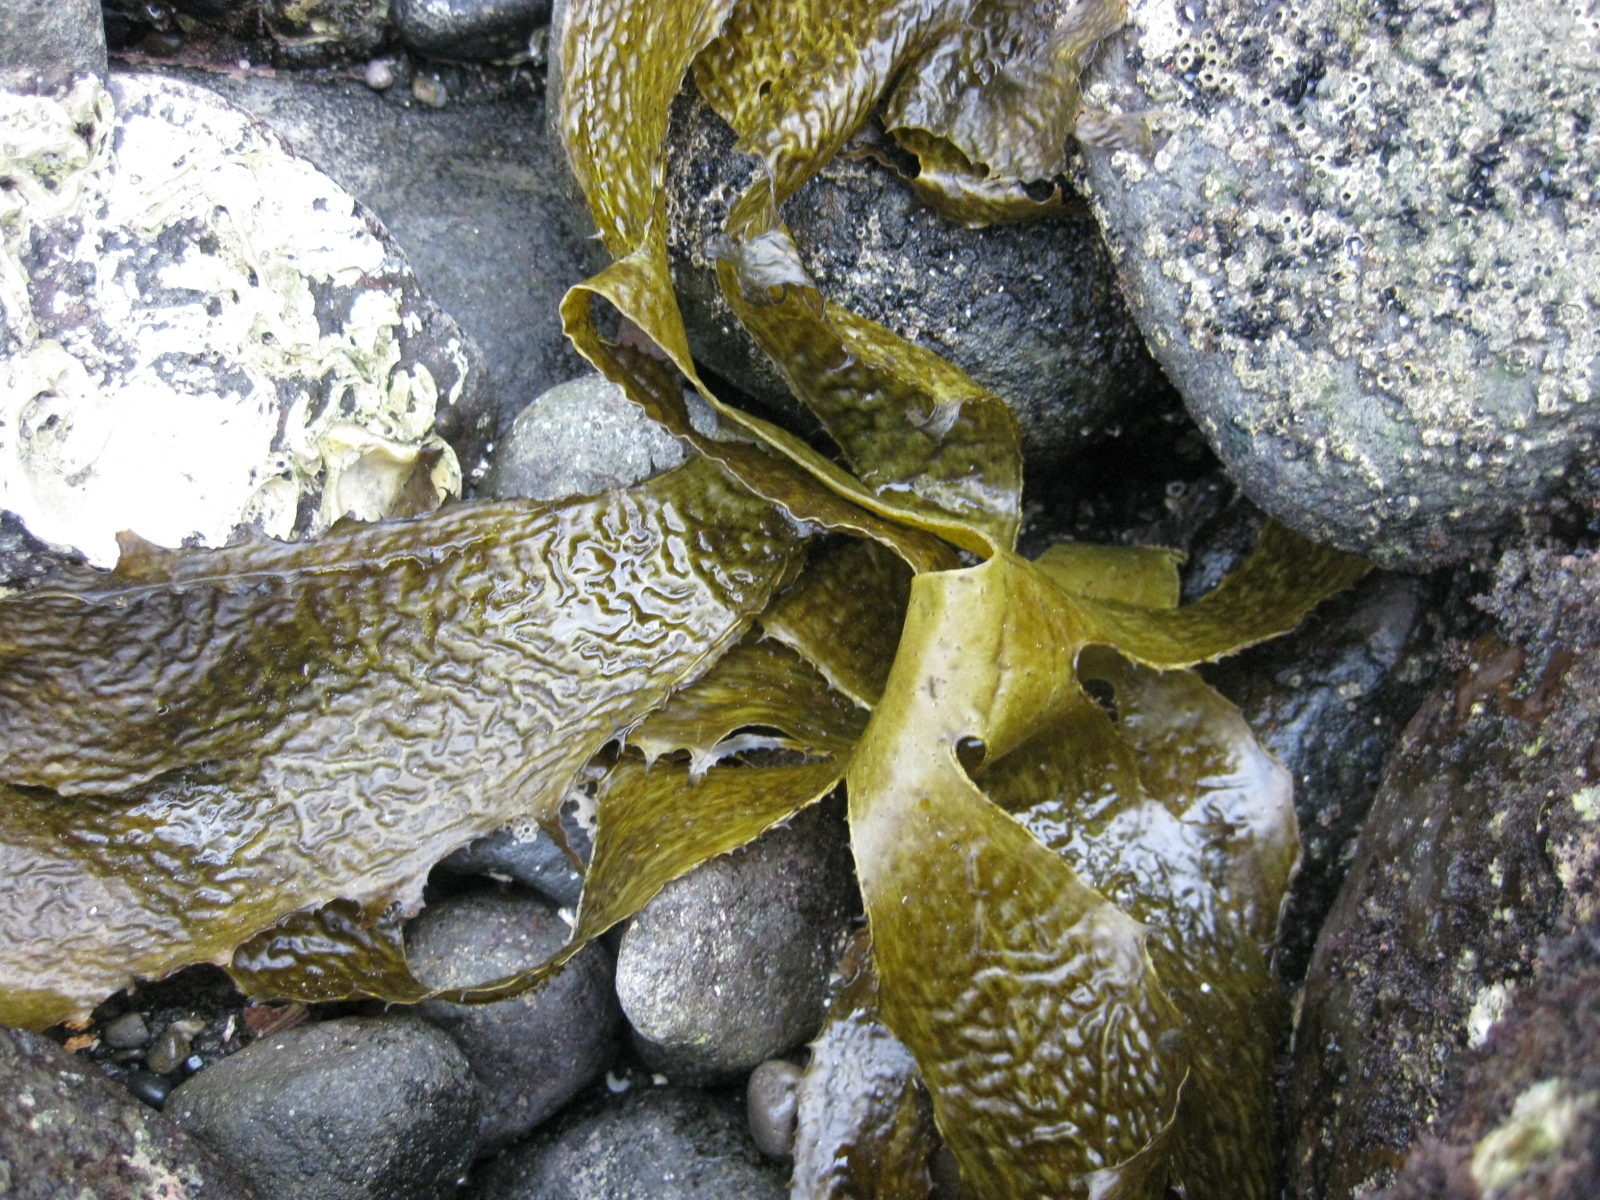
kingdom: Chromista
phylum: Ochrophyta
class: Phaeophyceae
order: Laminariales
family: Lessoniaceae
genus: Ecklonia
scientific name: Ecklonia radiata
